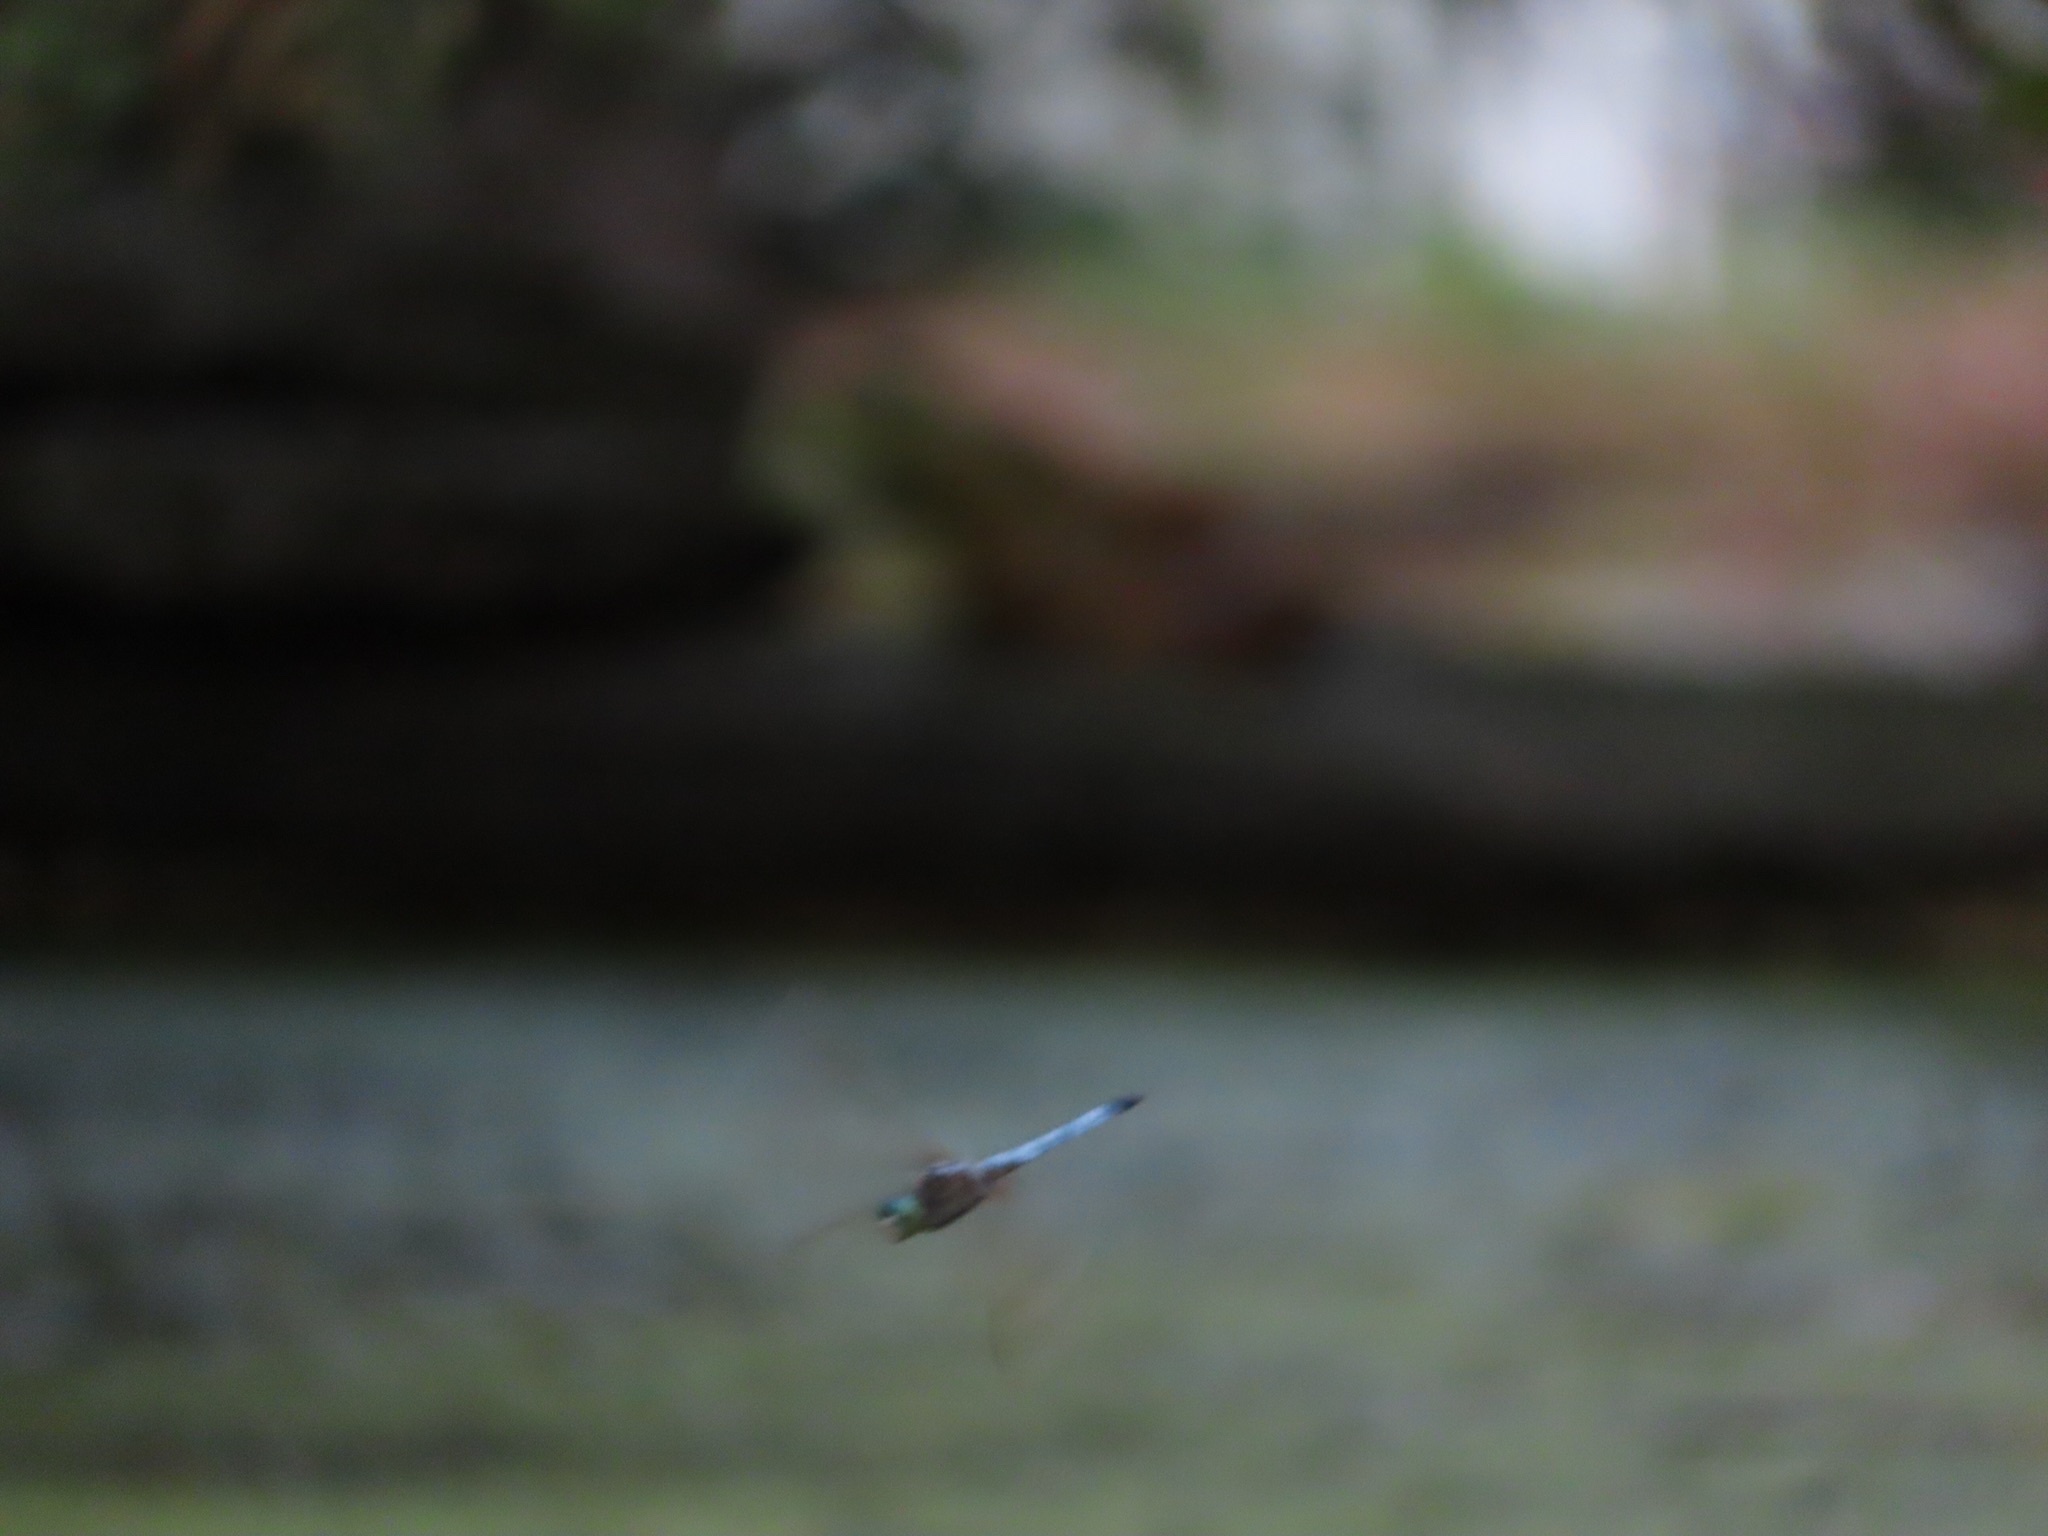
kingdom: Animalia
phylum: Arthropoda
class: Insecta
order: Odonata
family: Libellulidae
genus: Pachydiplax
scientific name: Pachydiplax longipennis
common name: Blue dasher
